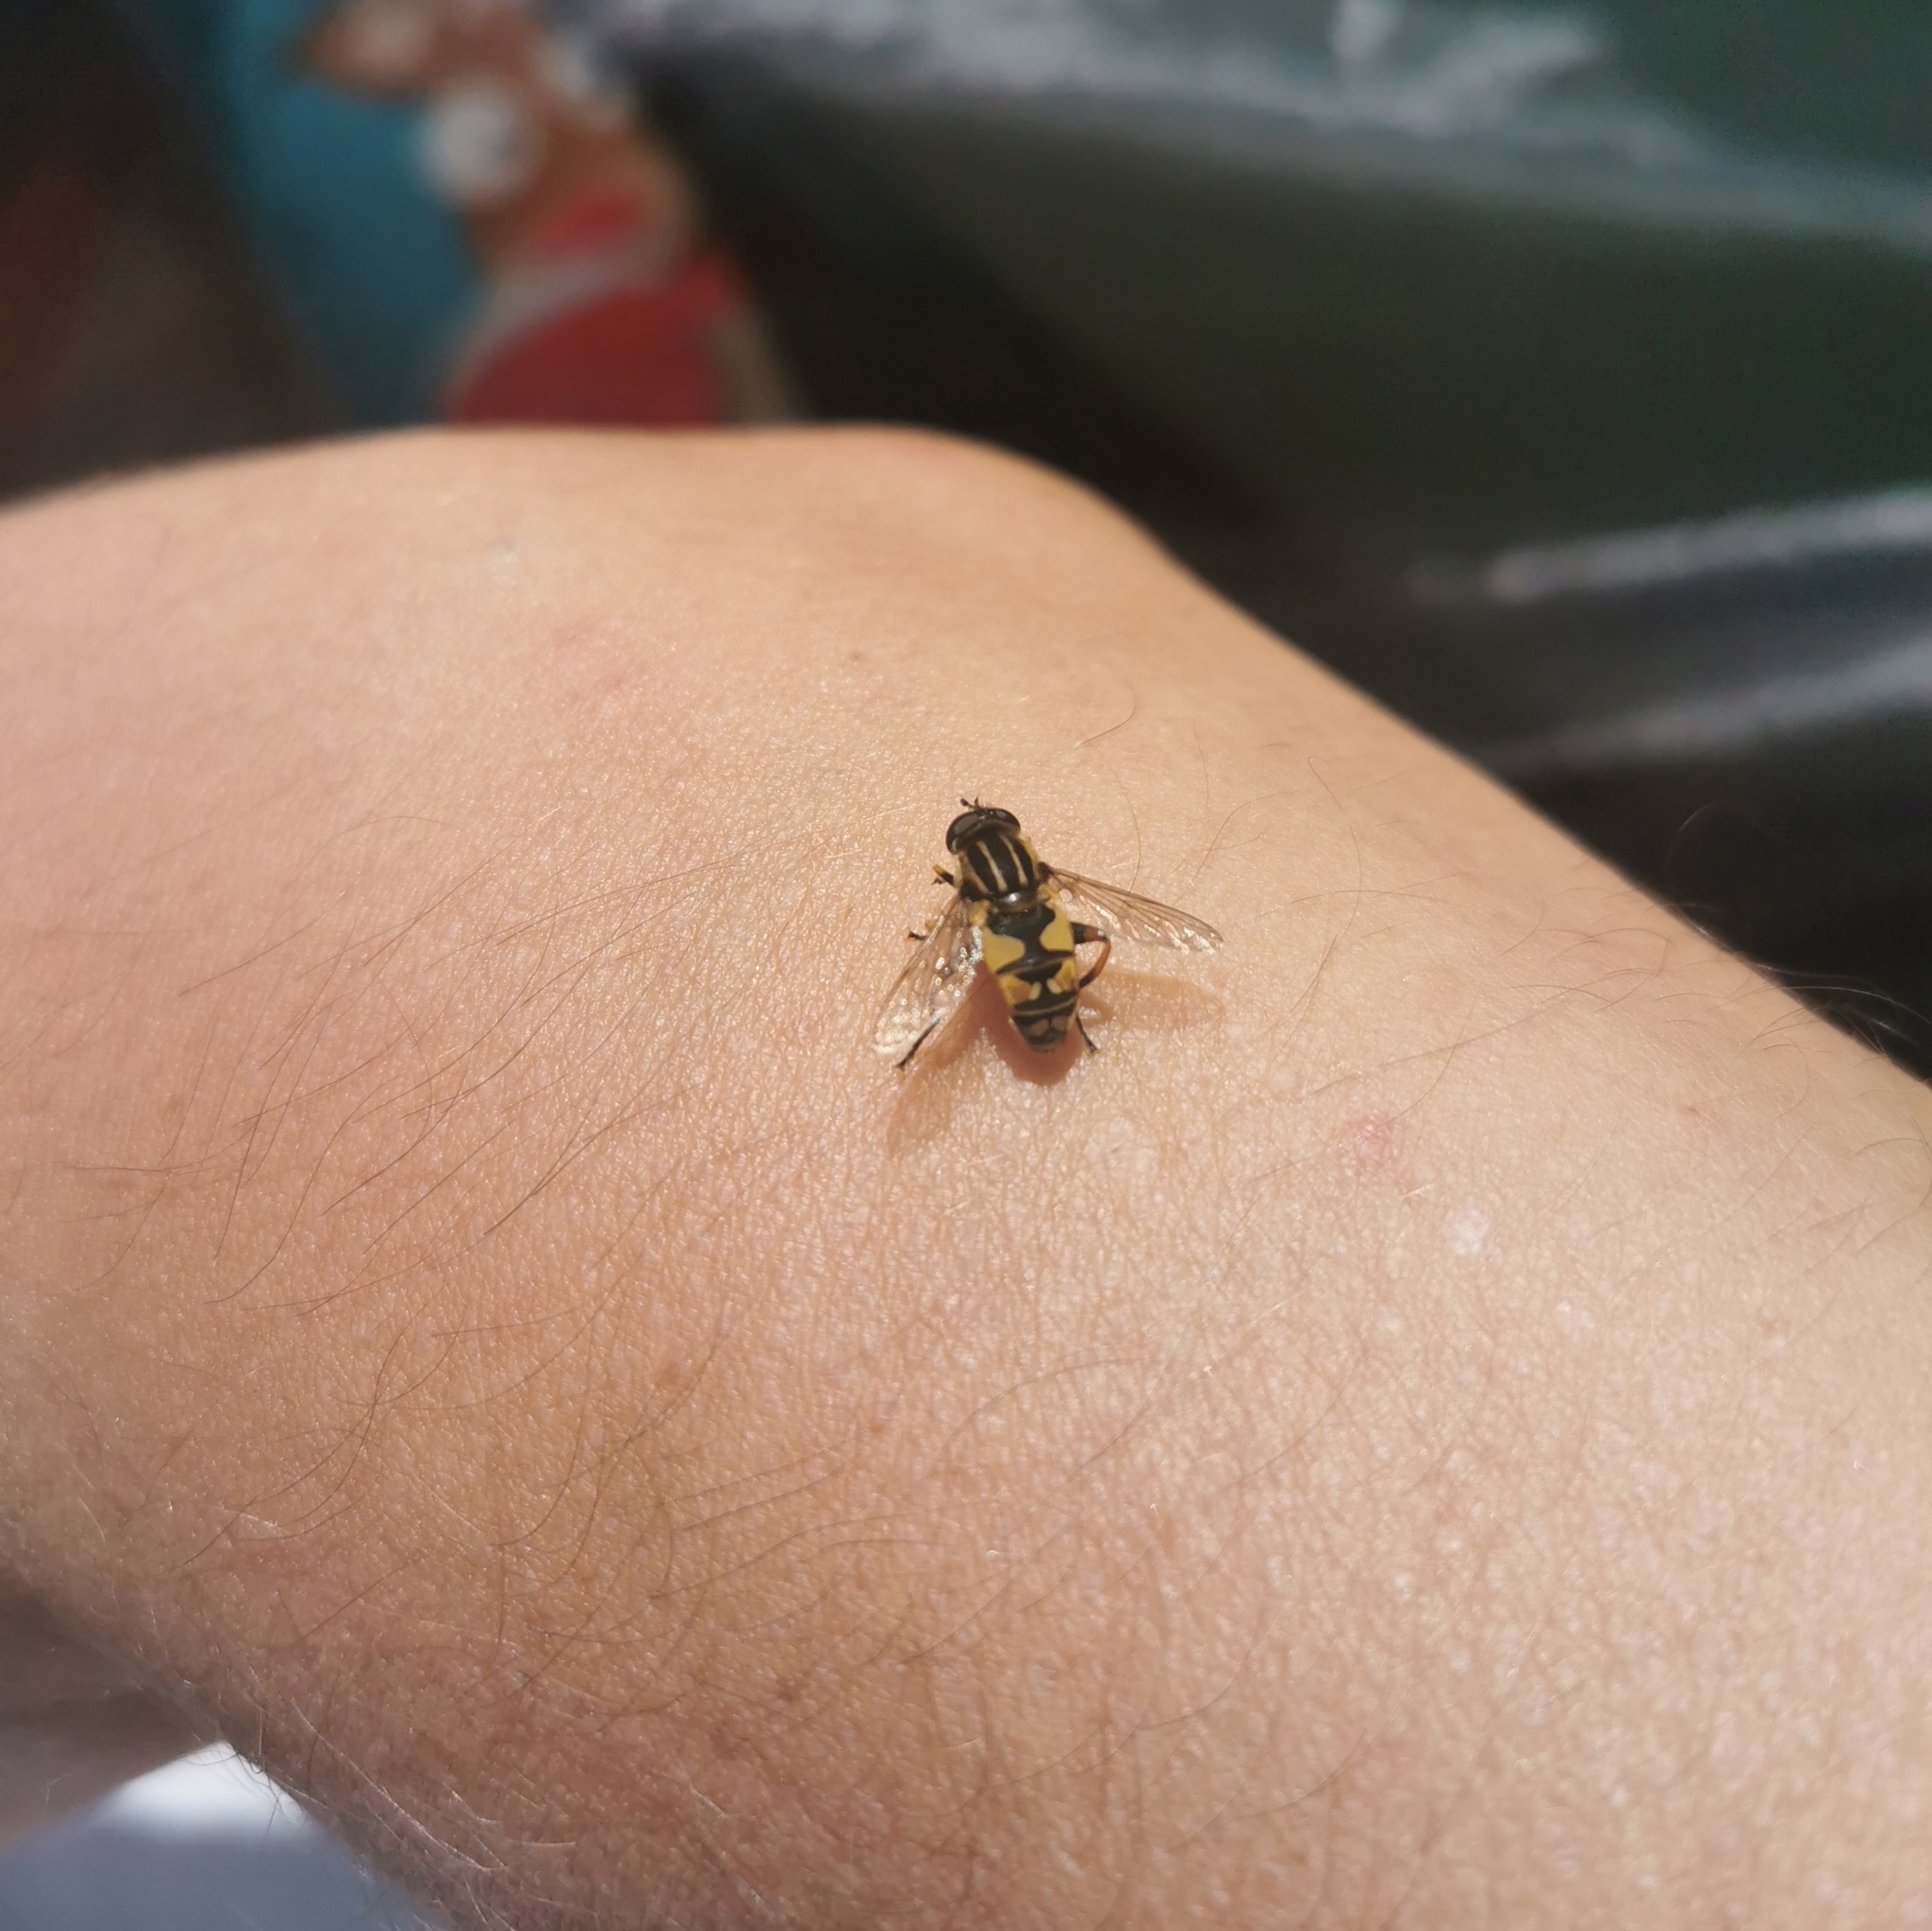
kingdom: Animalia
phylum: Arthropoda
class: Insecta
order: Diptera
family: Syrphidae
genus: Helophilus
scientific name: Helophilus pendulus
